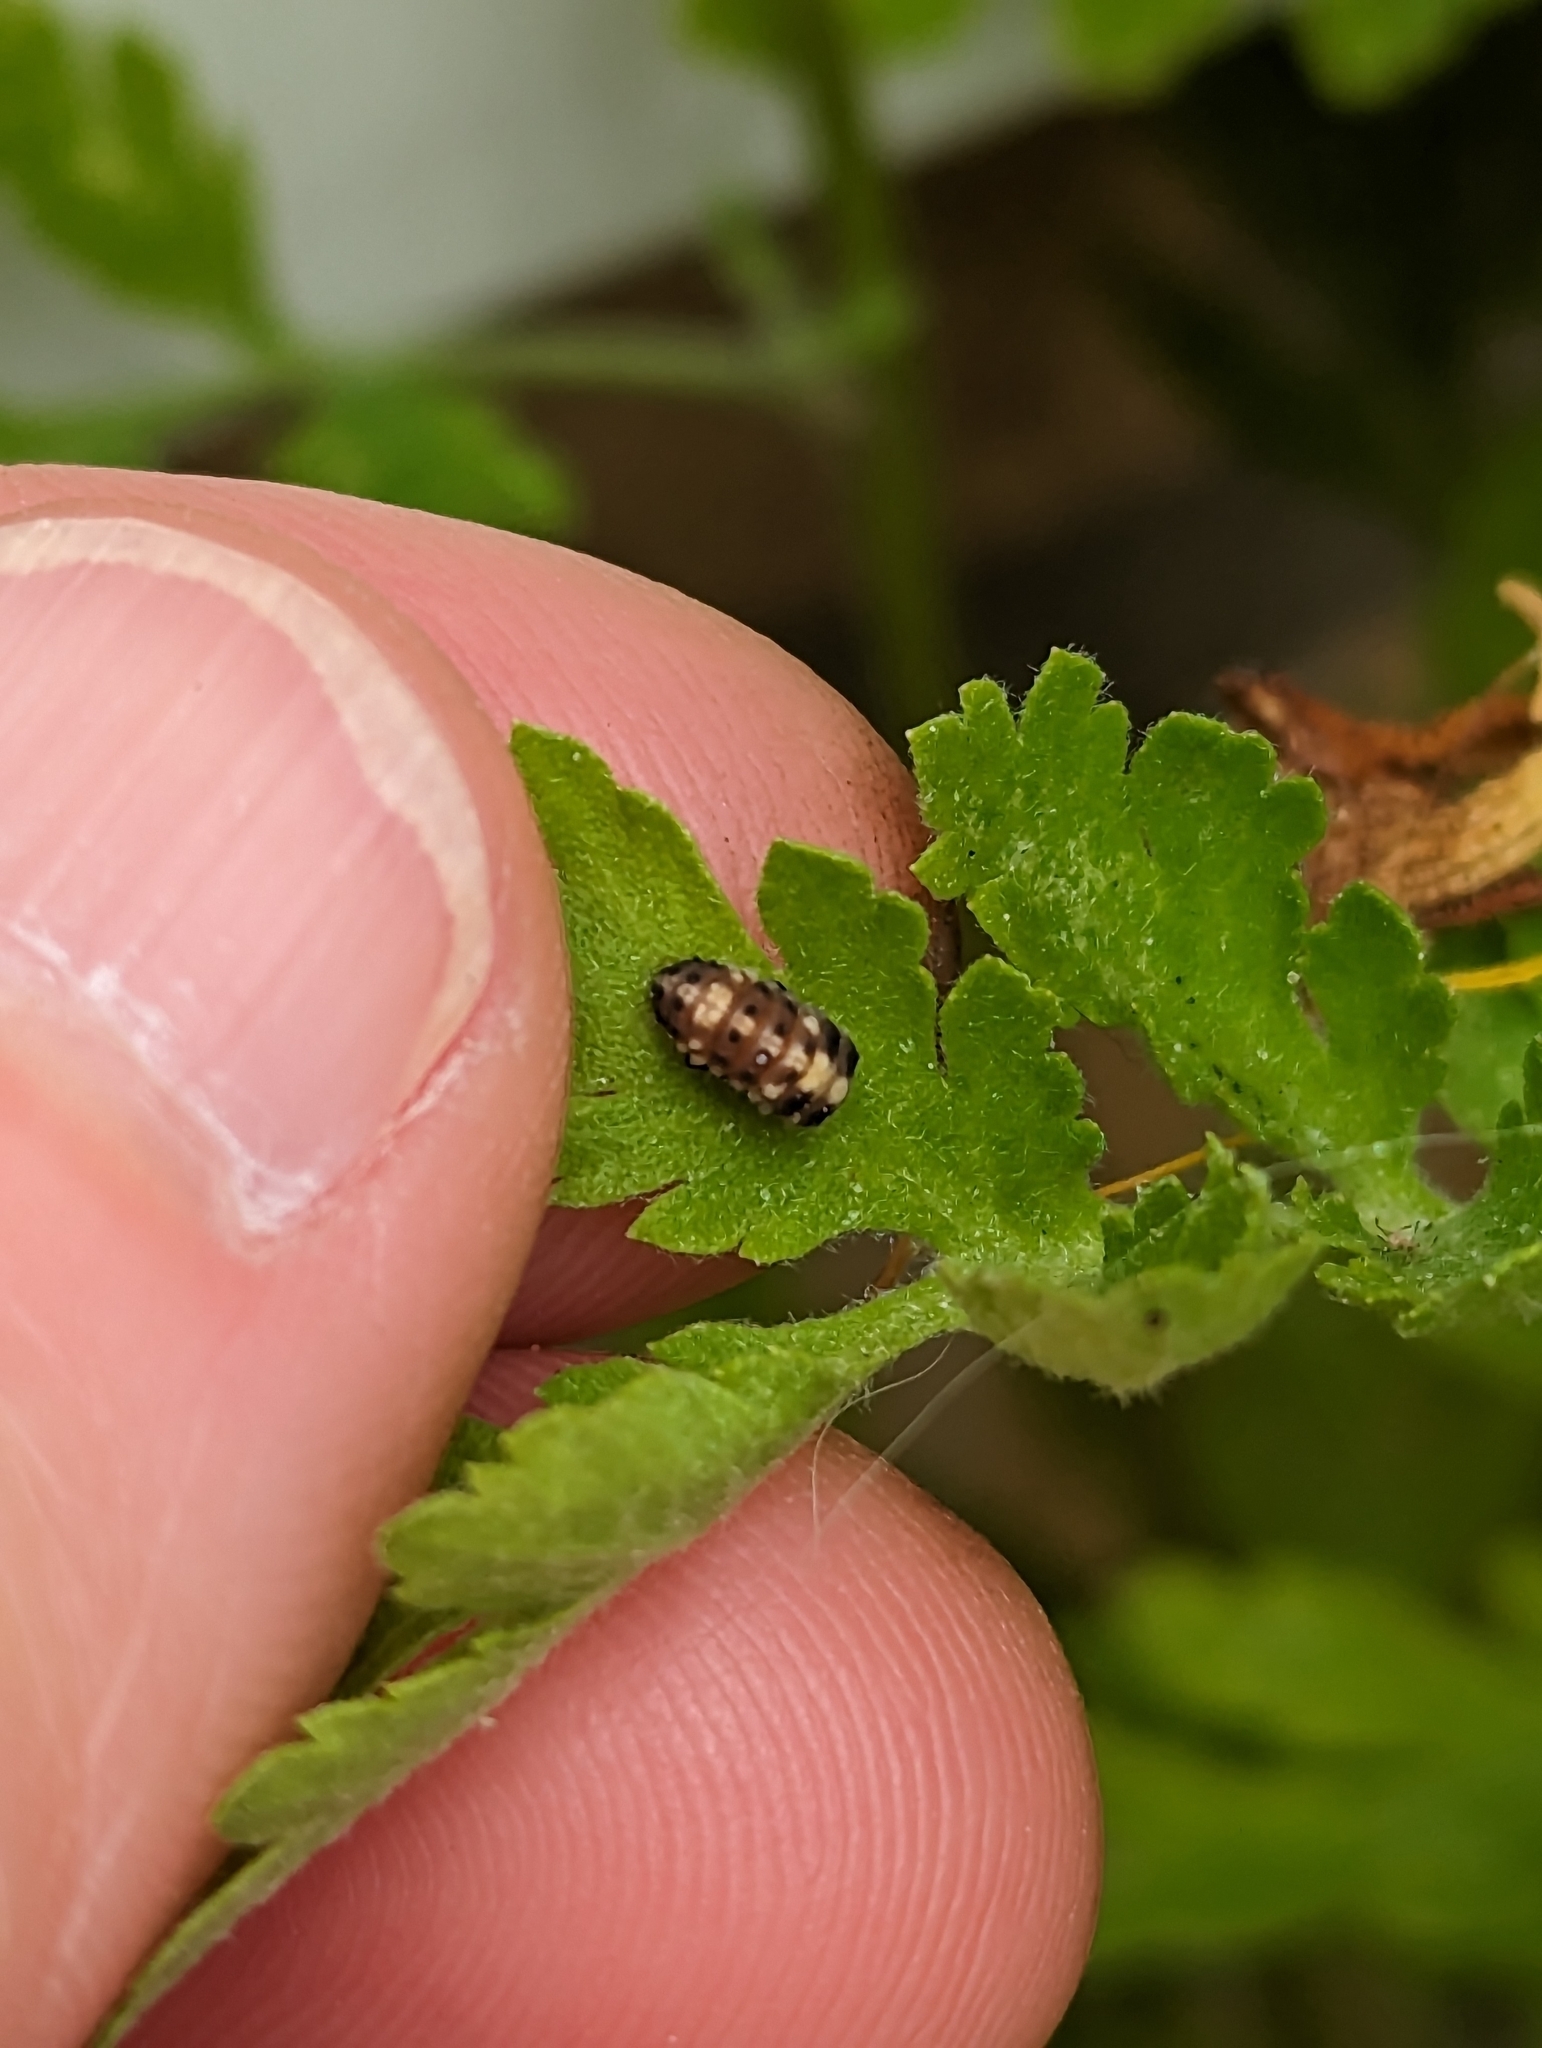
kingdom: Animalia
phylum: Arthropoda
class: Insecta
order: Coleoptera
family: Coccinellidae
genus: Propylaea
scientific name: Propylaea quatuordecimpunctata
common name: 14-spotted ladybird beetle
